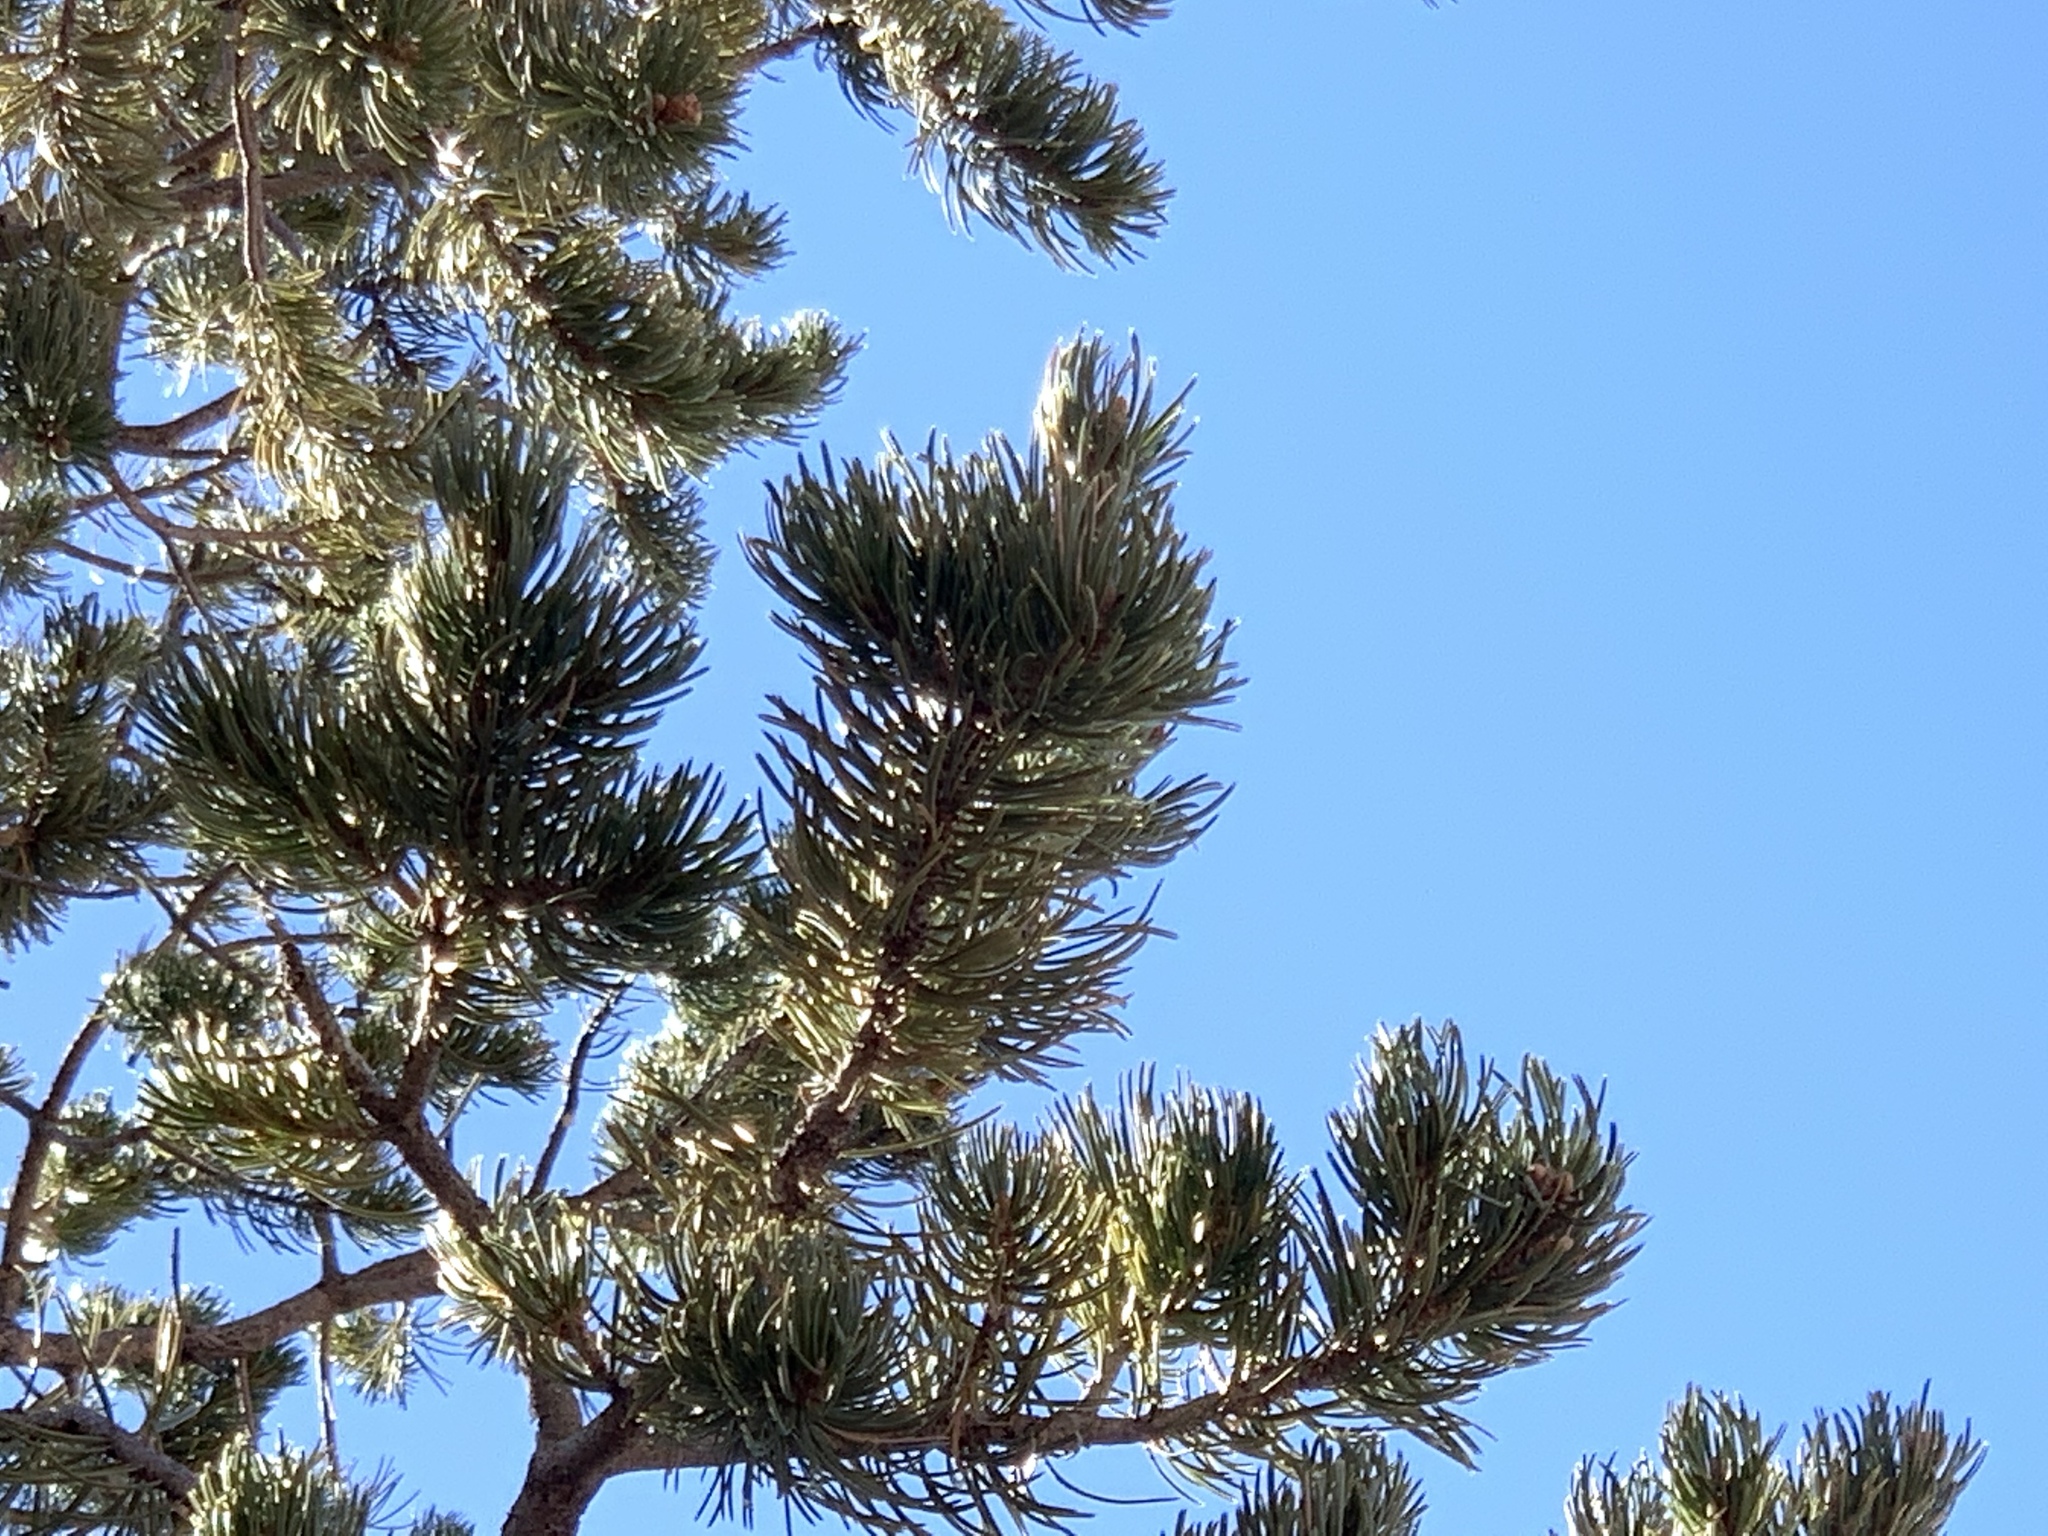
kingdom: Plantae
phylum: Tracheophyta
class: Pinopsida
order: Pinales
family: Pinaceae
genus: Pinus
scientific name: Pinus edulis
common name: Colorado pinyon
